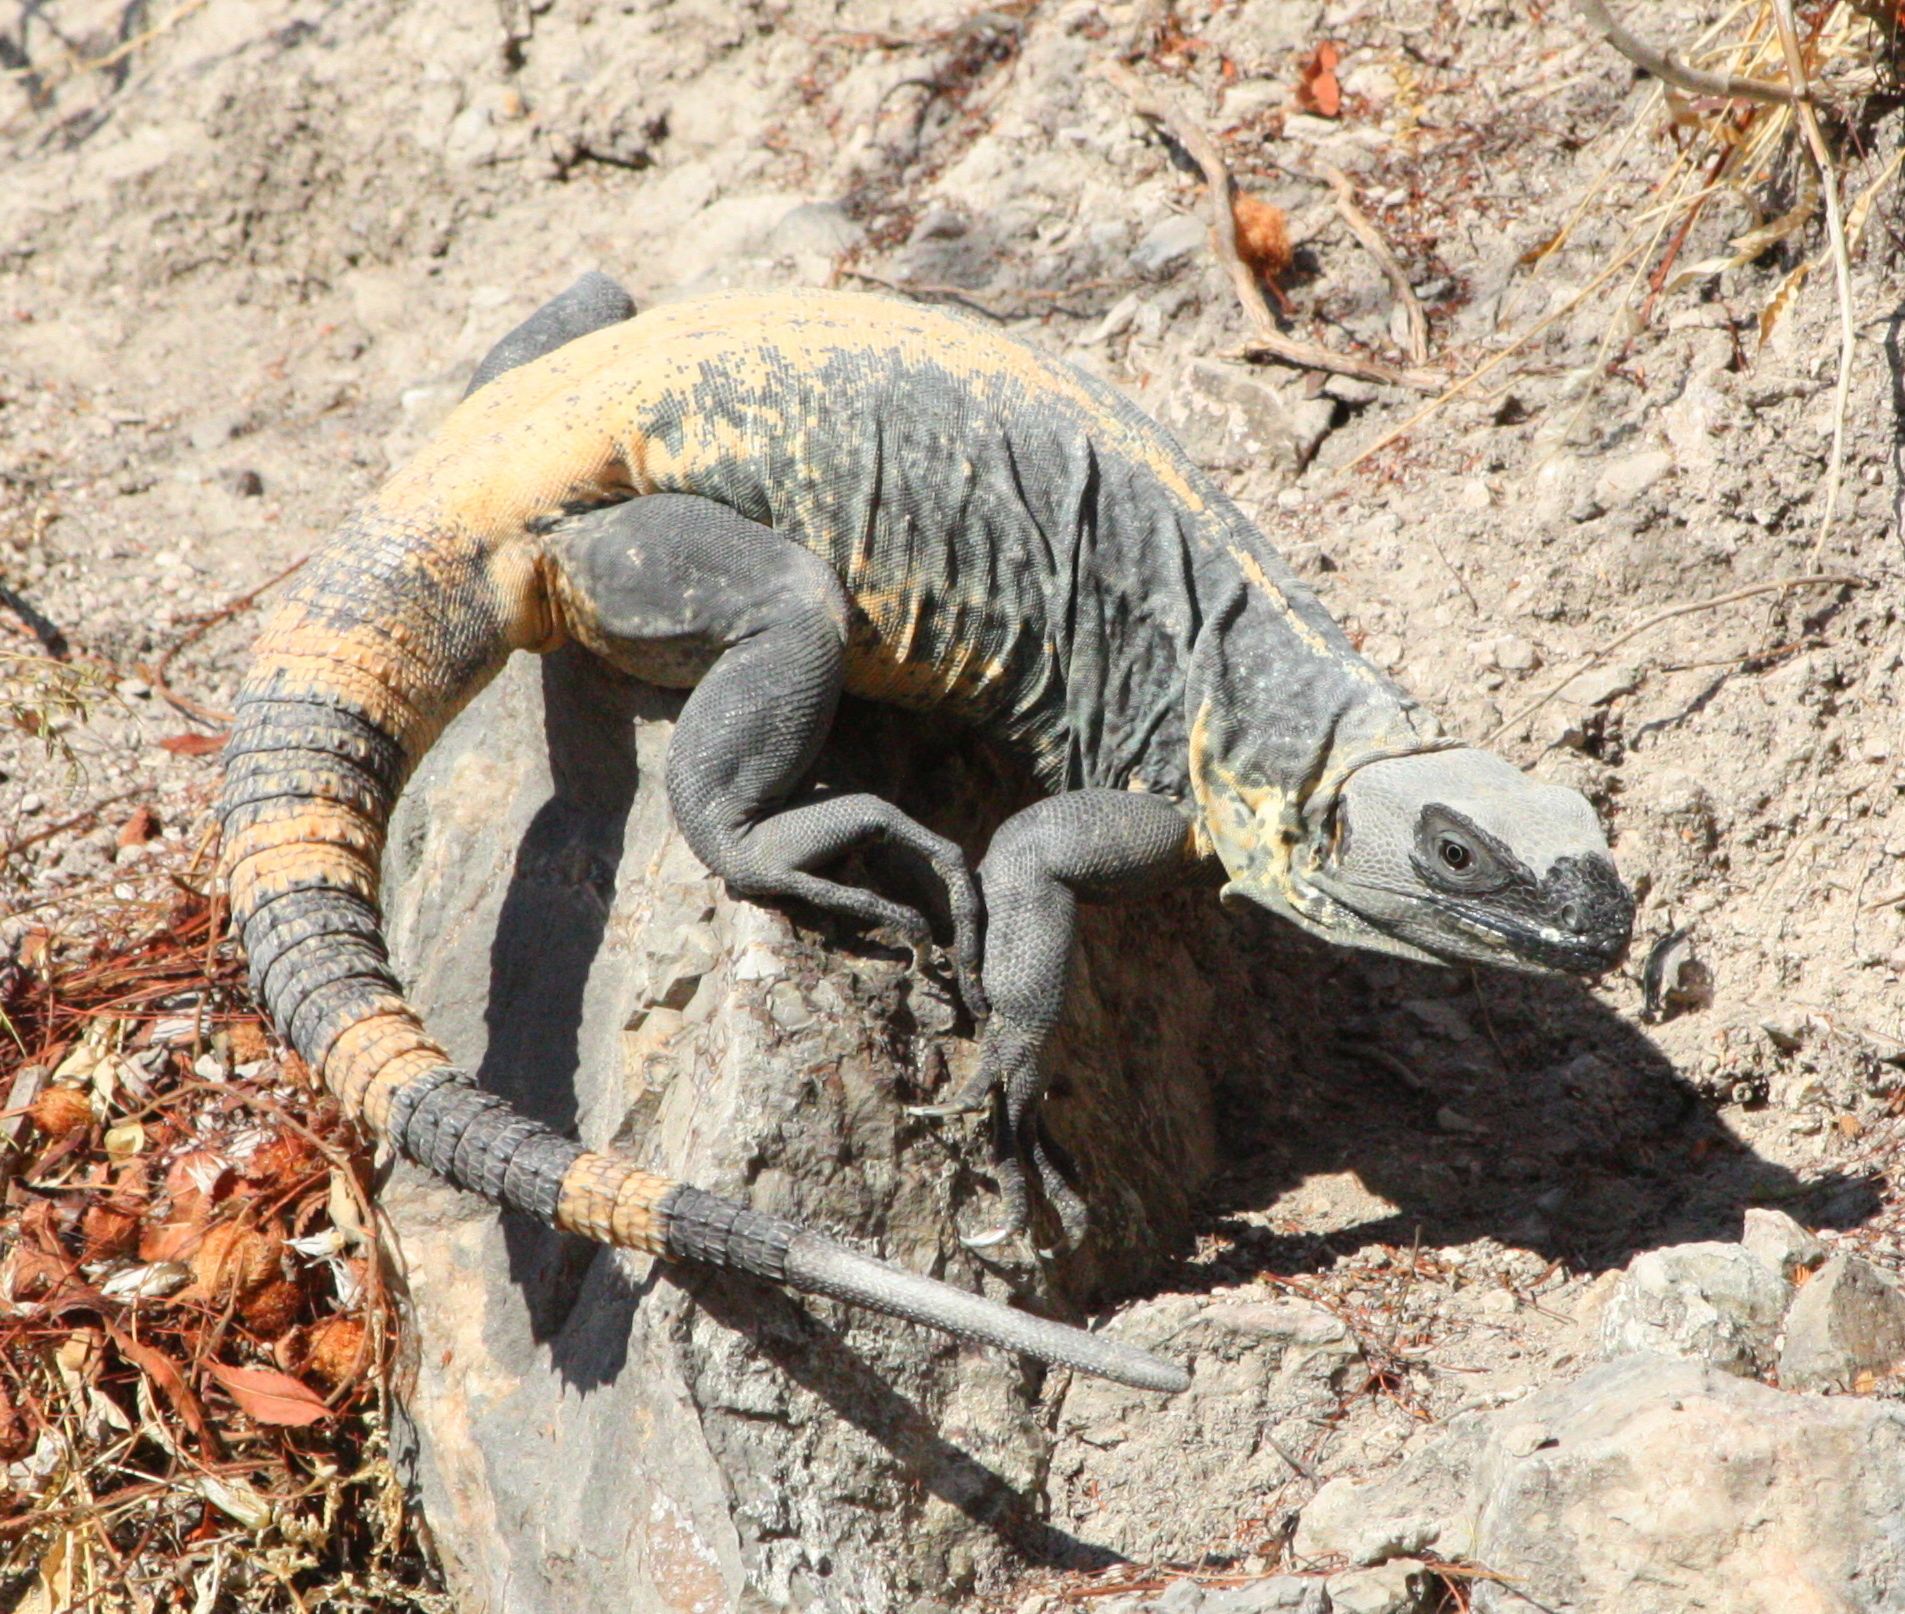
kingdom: Animalia
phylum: Chordata
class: Squamata
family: Iguanidae
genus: Ctenosaura
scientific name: Ctenosaura pectinata
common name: Guerreran spiny-tailed iguana
